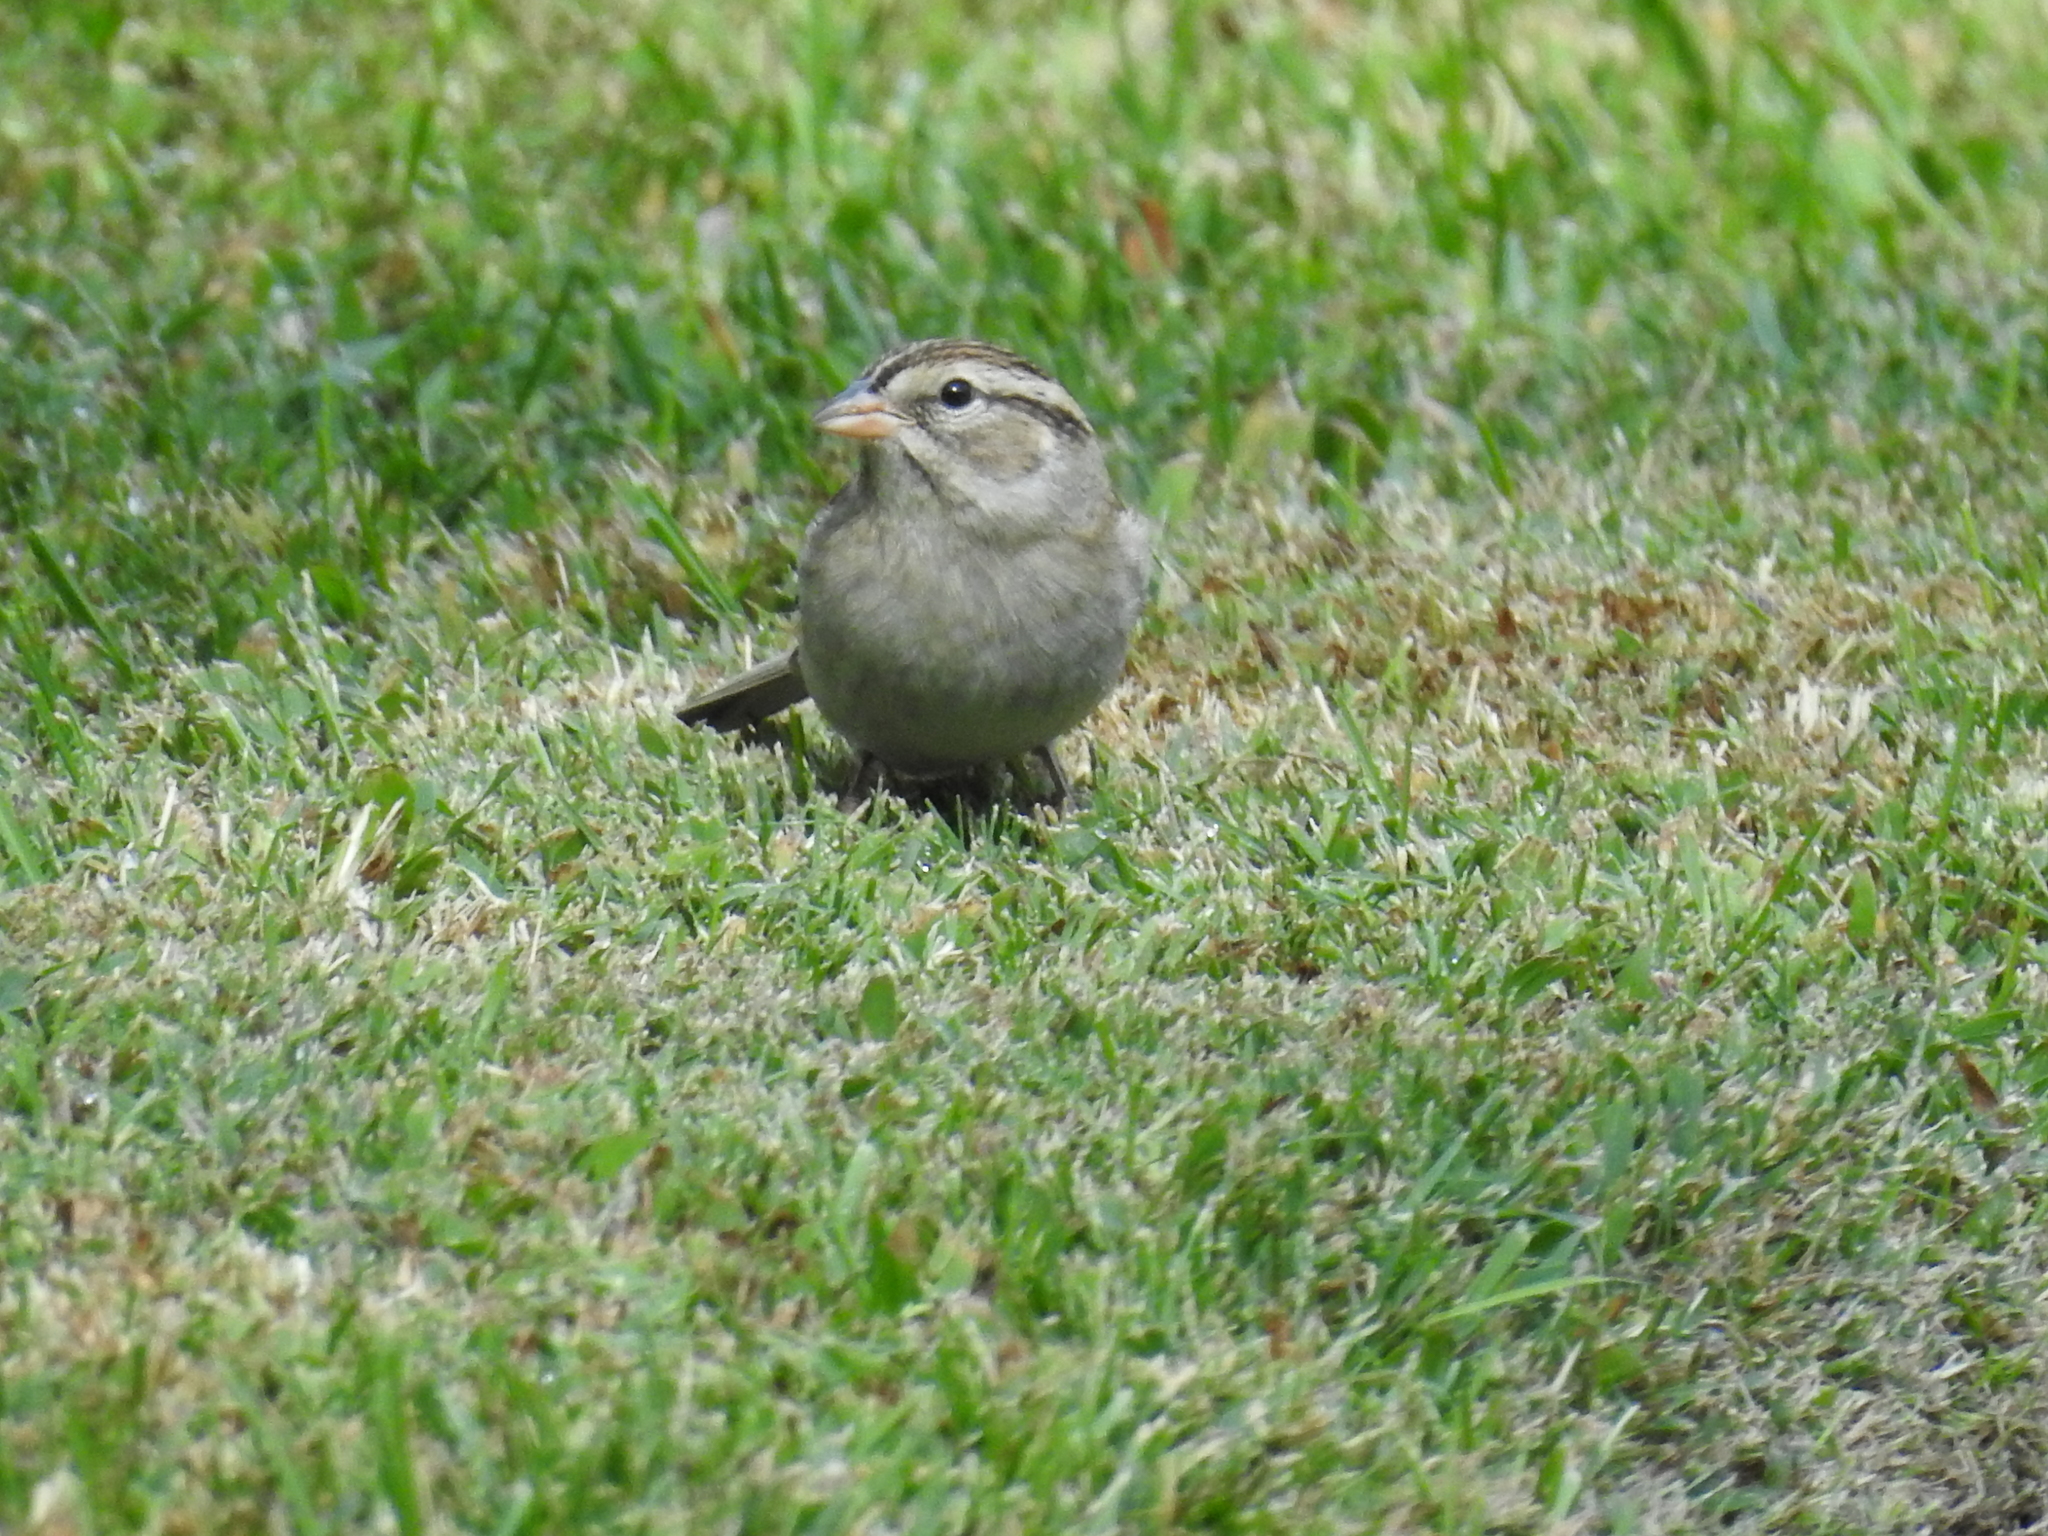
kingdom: Animalia
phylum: Chordata
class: Aves
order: Passeriformes
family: Passerellidae
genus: Spizella
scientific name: Spizella passerina
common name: Chipping sparrow
